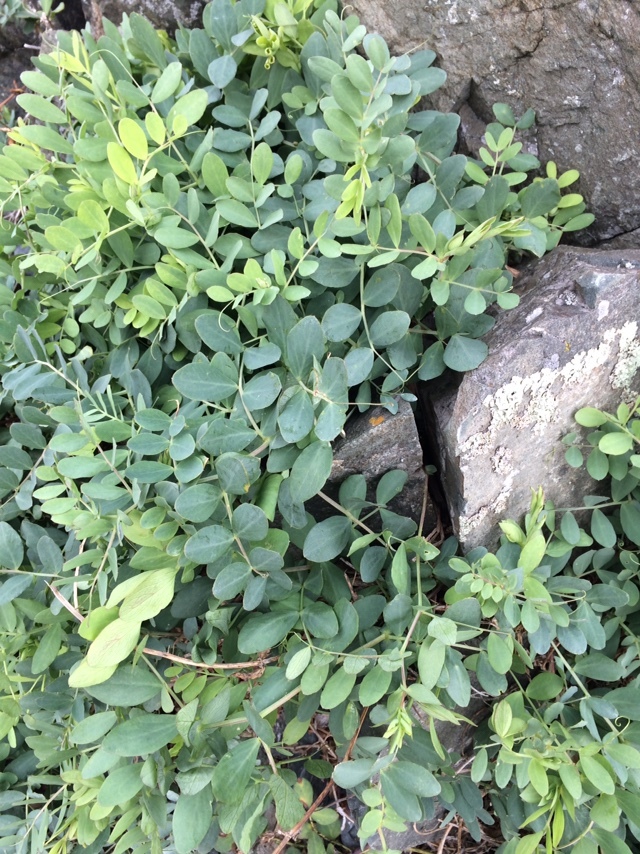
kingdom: Plantae
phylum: Tracheophyta
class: Magnoliopsida
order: Fabales
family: Fabaceae
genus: Lathyrus
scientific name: Lathyrus japonicus
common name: Sea pea
